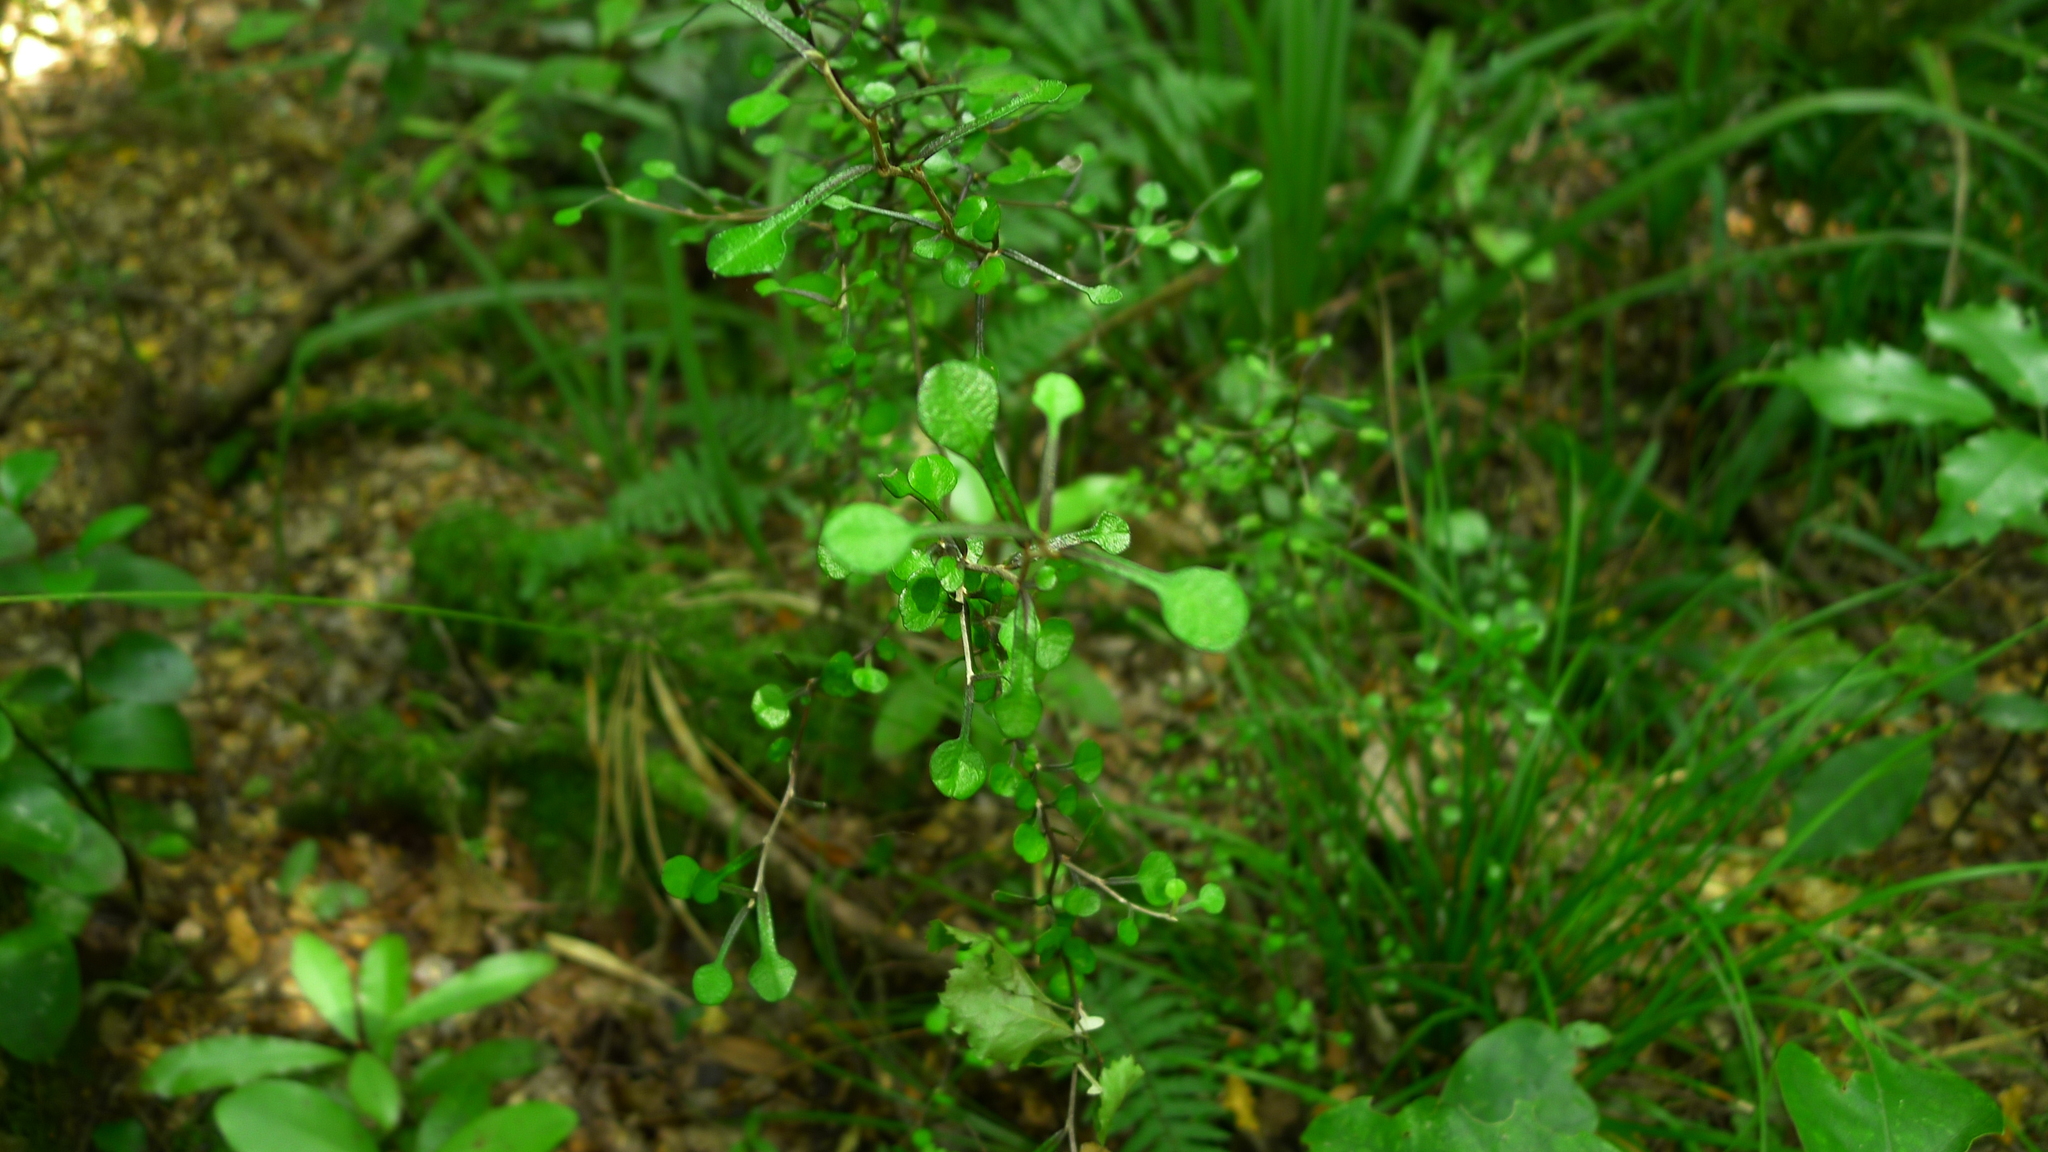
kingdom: Plantae
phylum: Tracheophyta
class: Magnoliopsida
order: Asterales
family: Argophyllaceae
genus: Corokia
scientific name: Corokia cotoneaster
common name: Wire nettingbush
